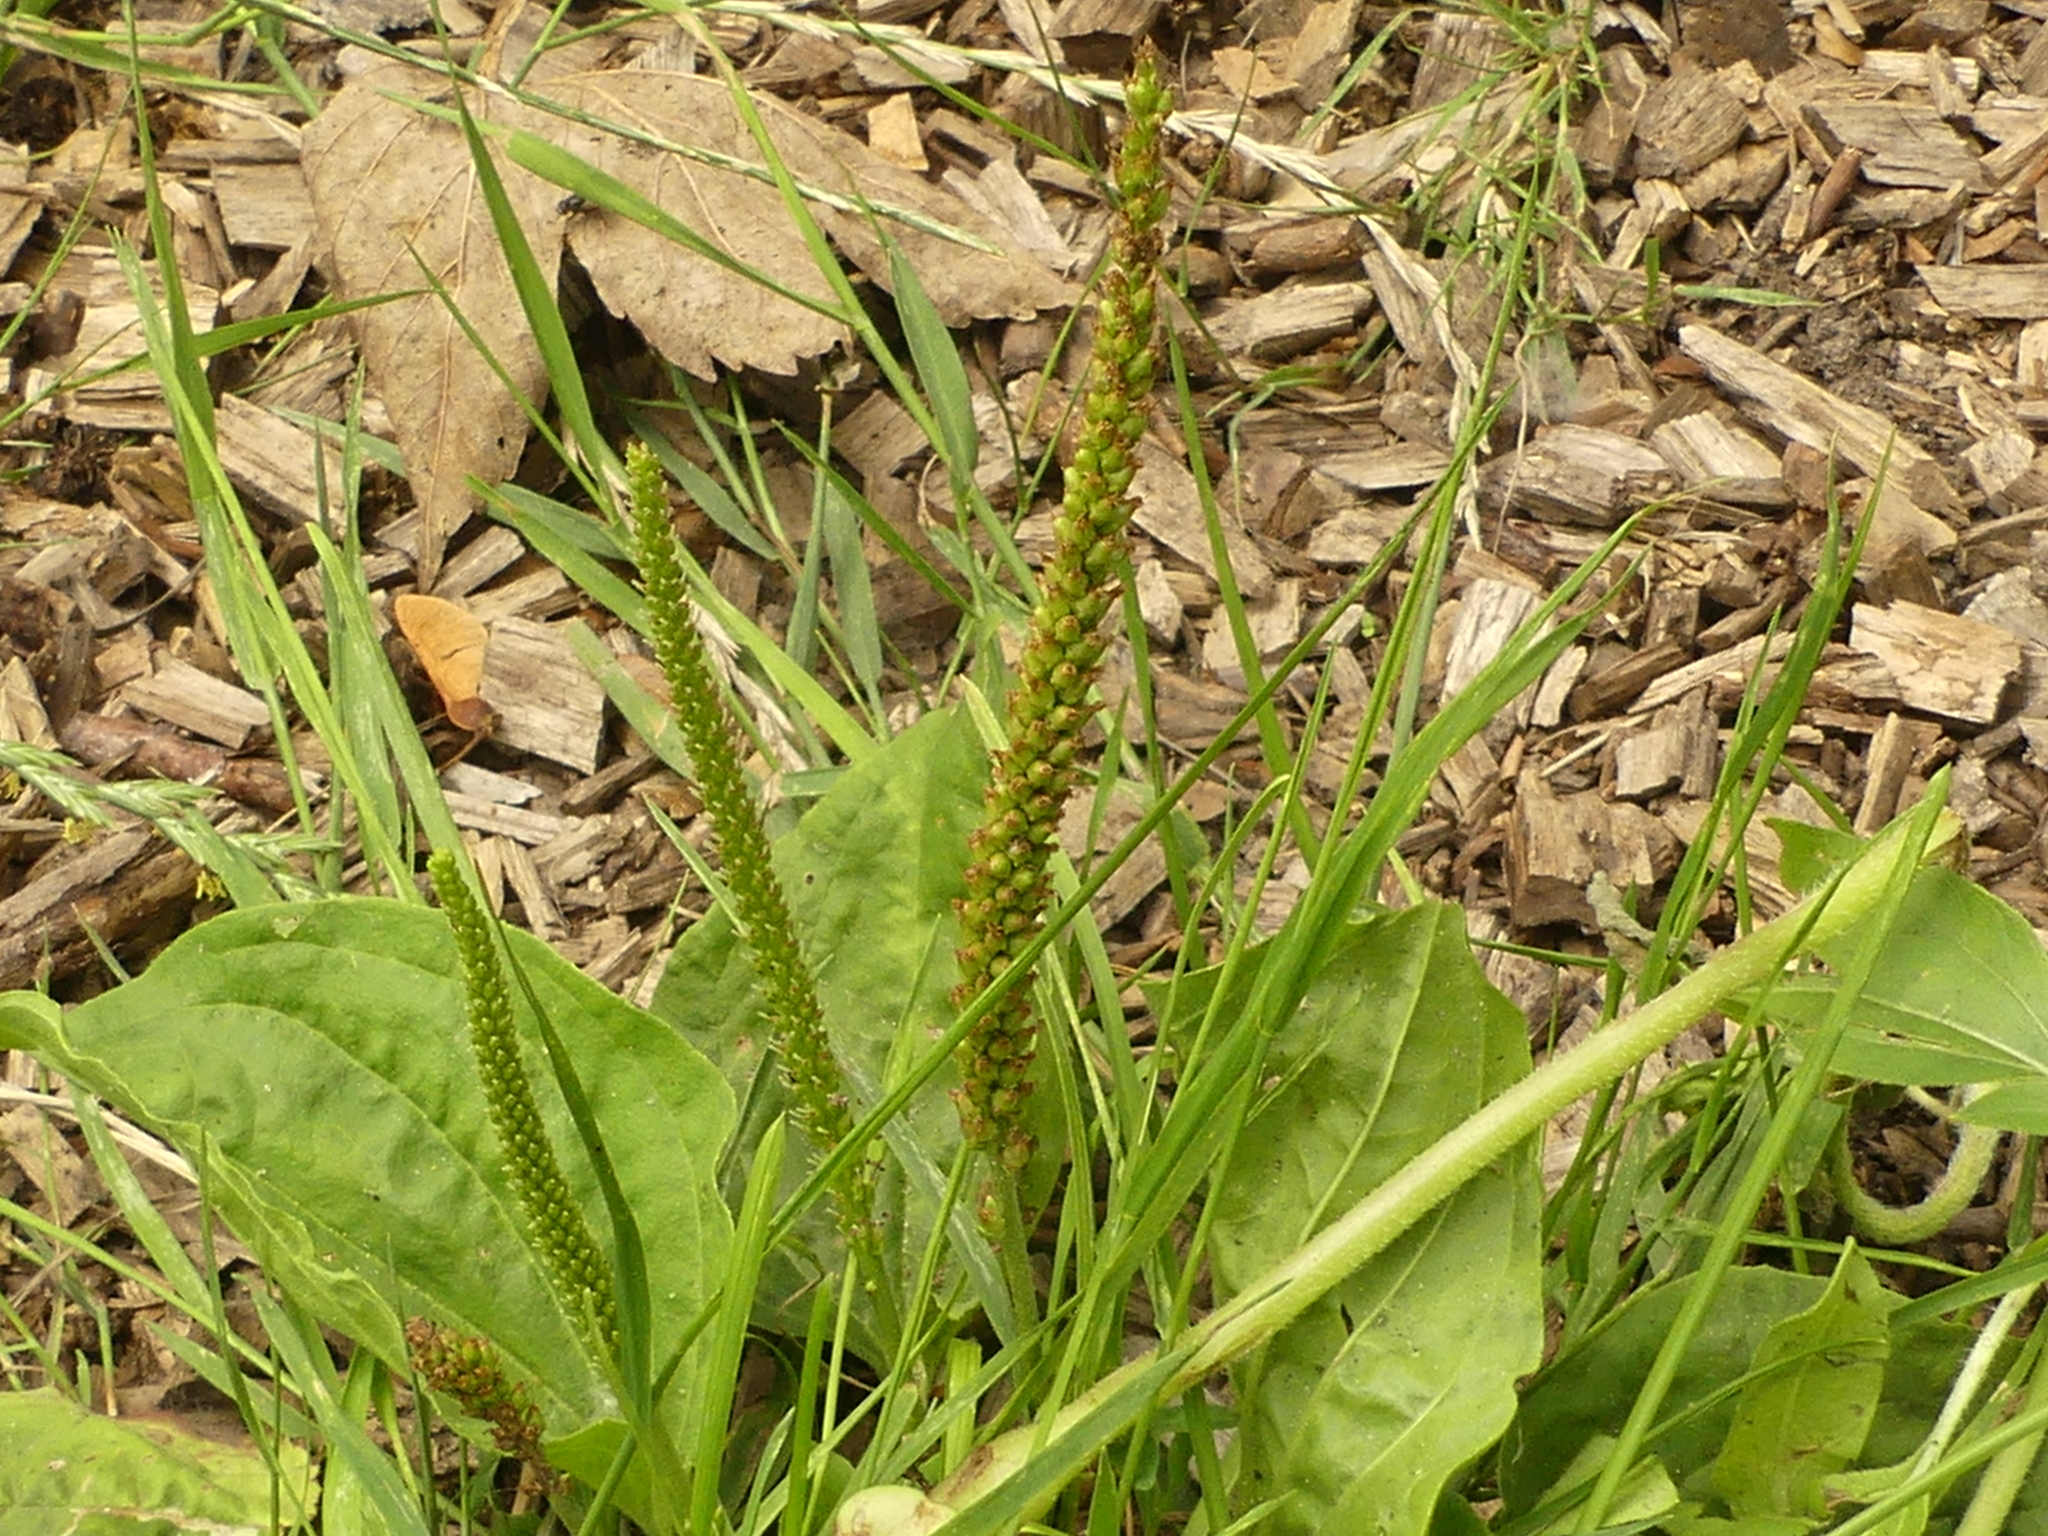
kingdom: Plantae
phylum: Tracheophyta
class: Magnoliopsida
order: Lamiales
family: Plantaginaceae
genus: Plantago
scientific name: Plantago major
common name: Common plantain
